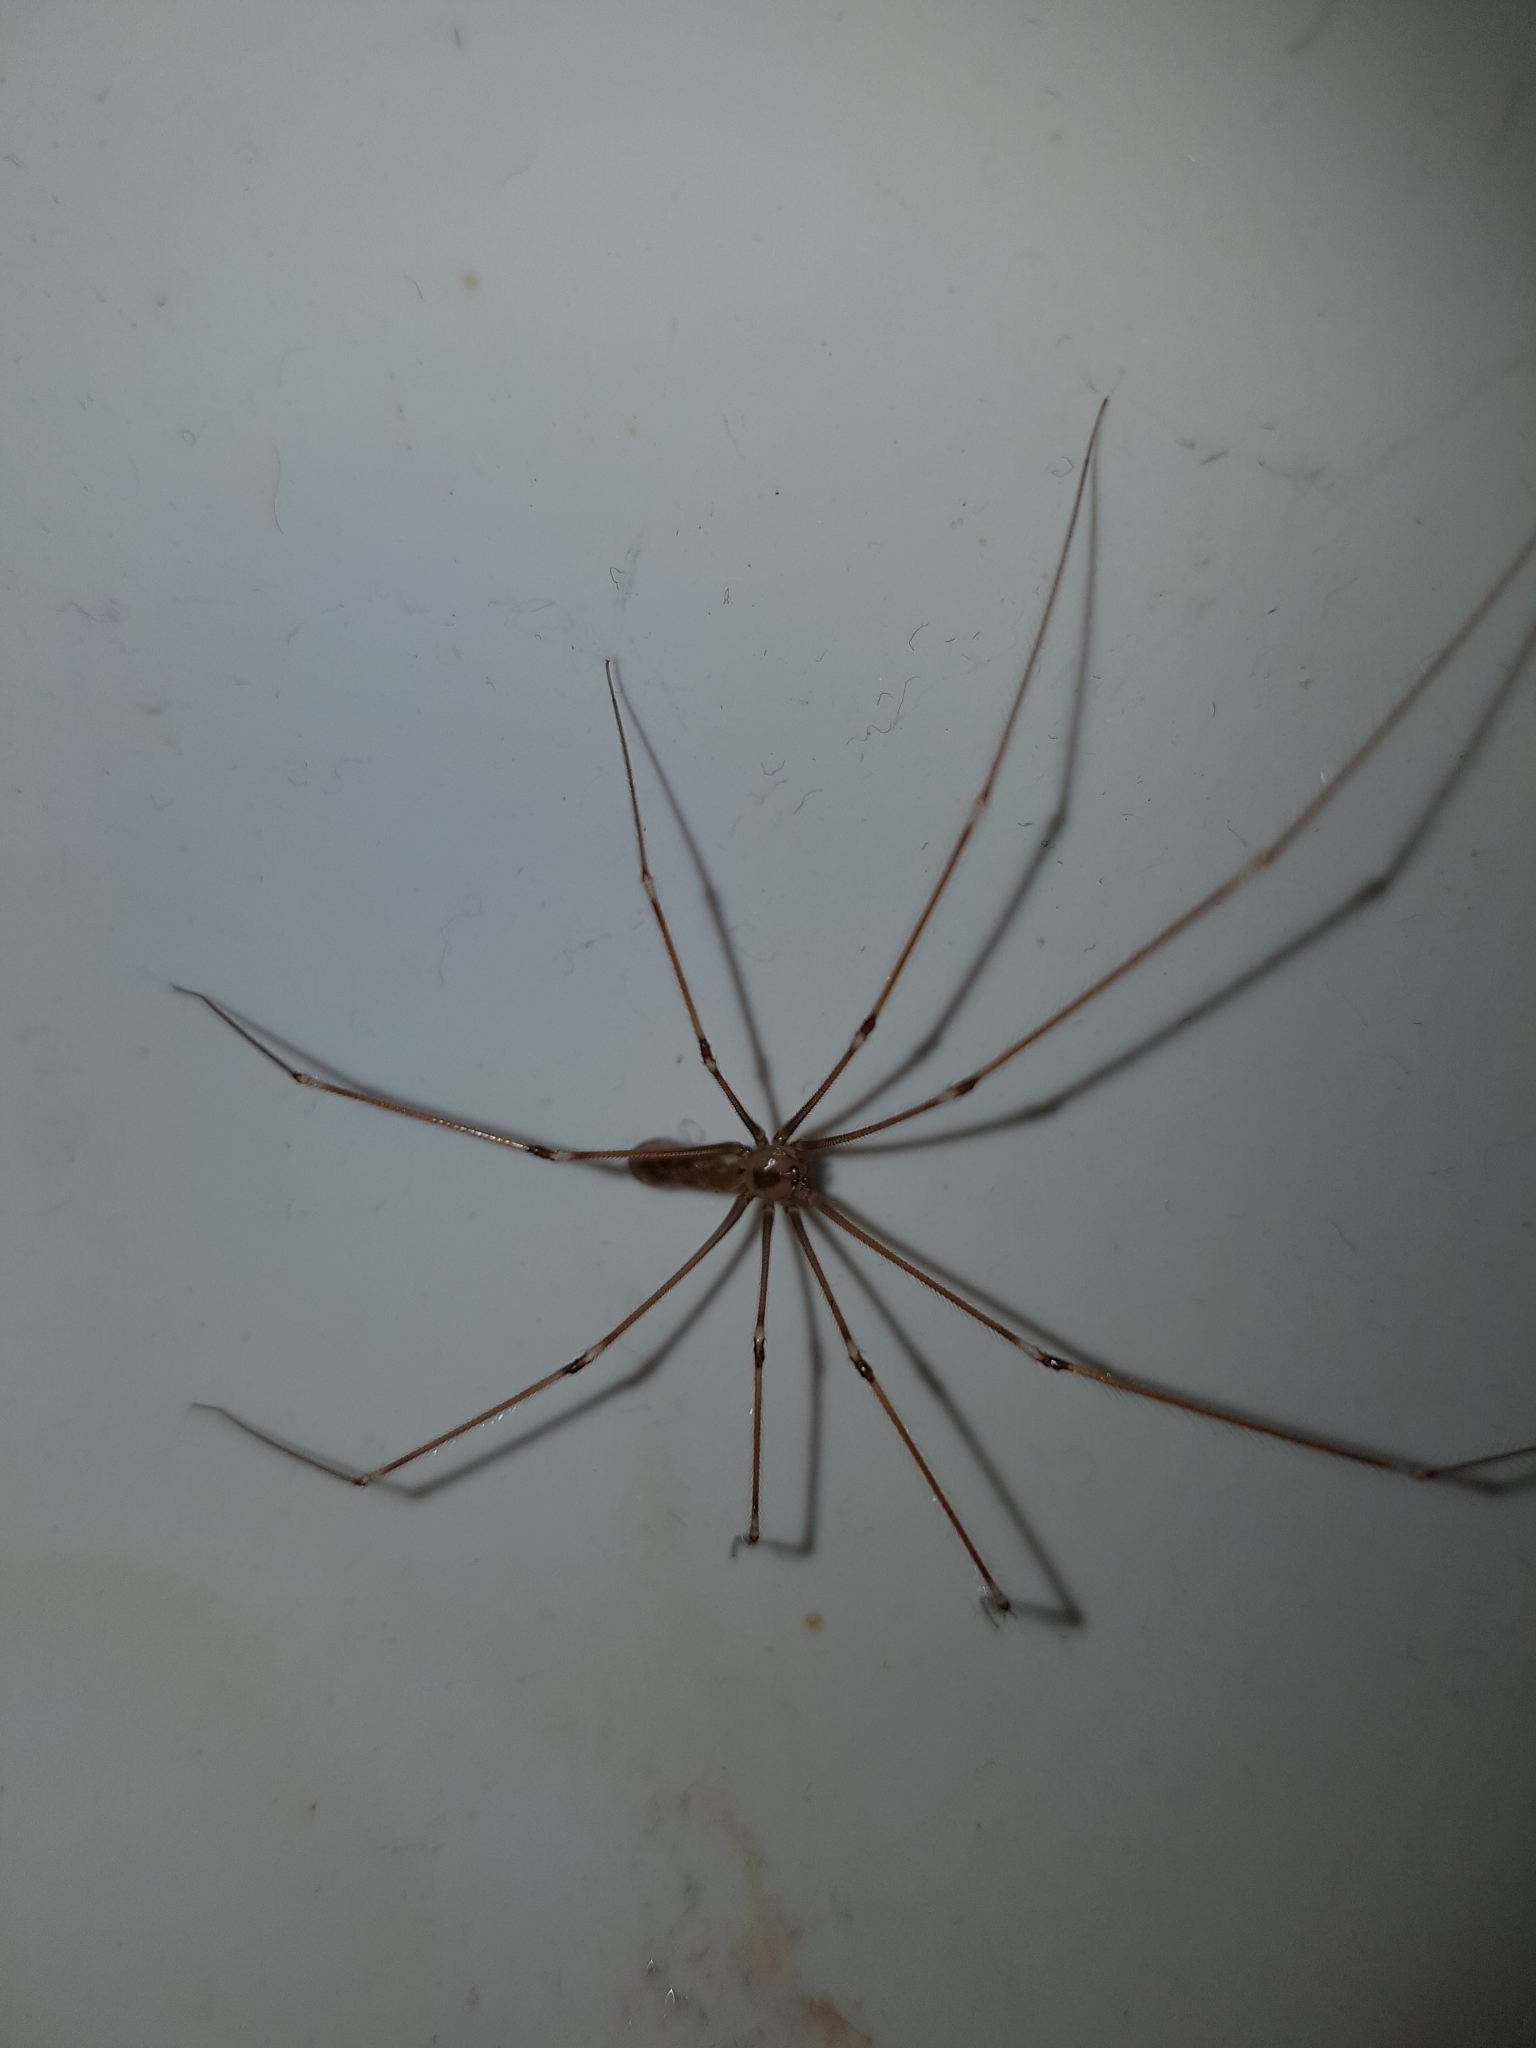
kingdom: Animalia
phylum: Arthropoda
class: Arachnida
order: Araneae
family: Pholcidae
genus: Pholcus
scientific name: Pholcus phalangioides
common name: Longbodied cellar spider
